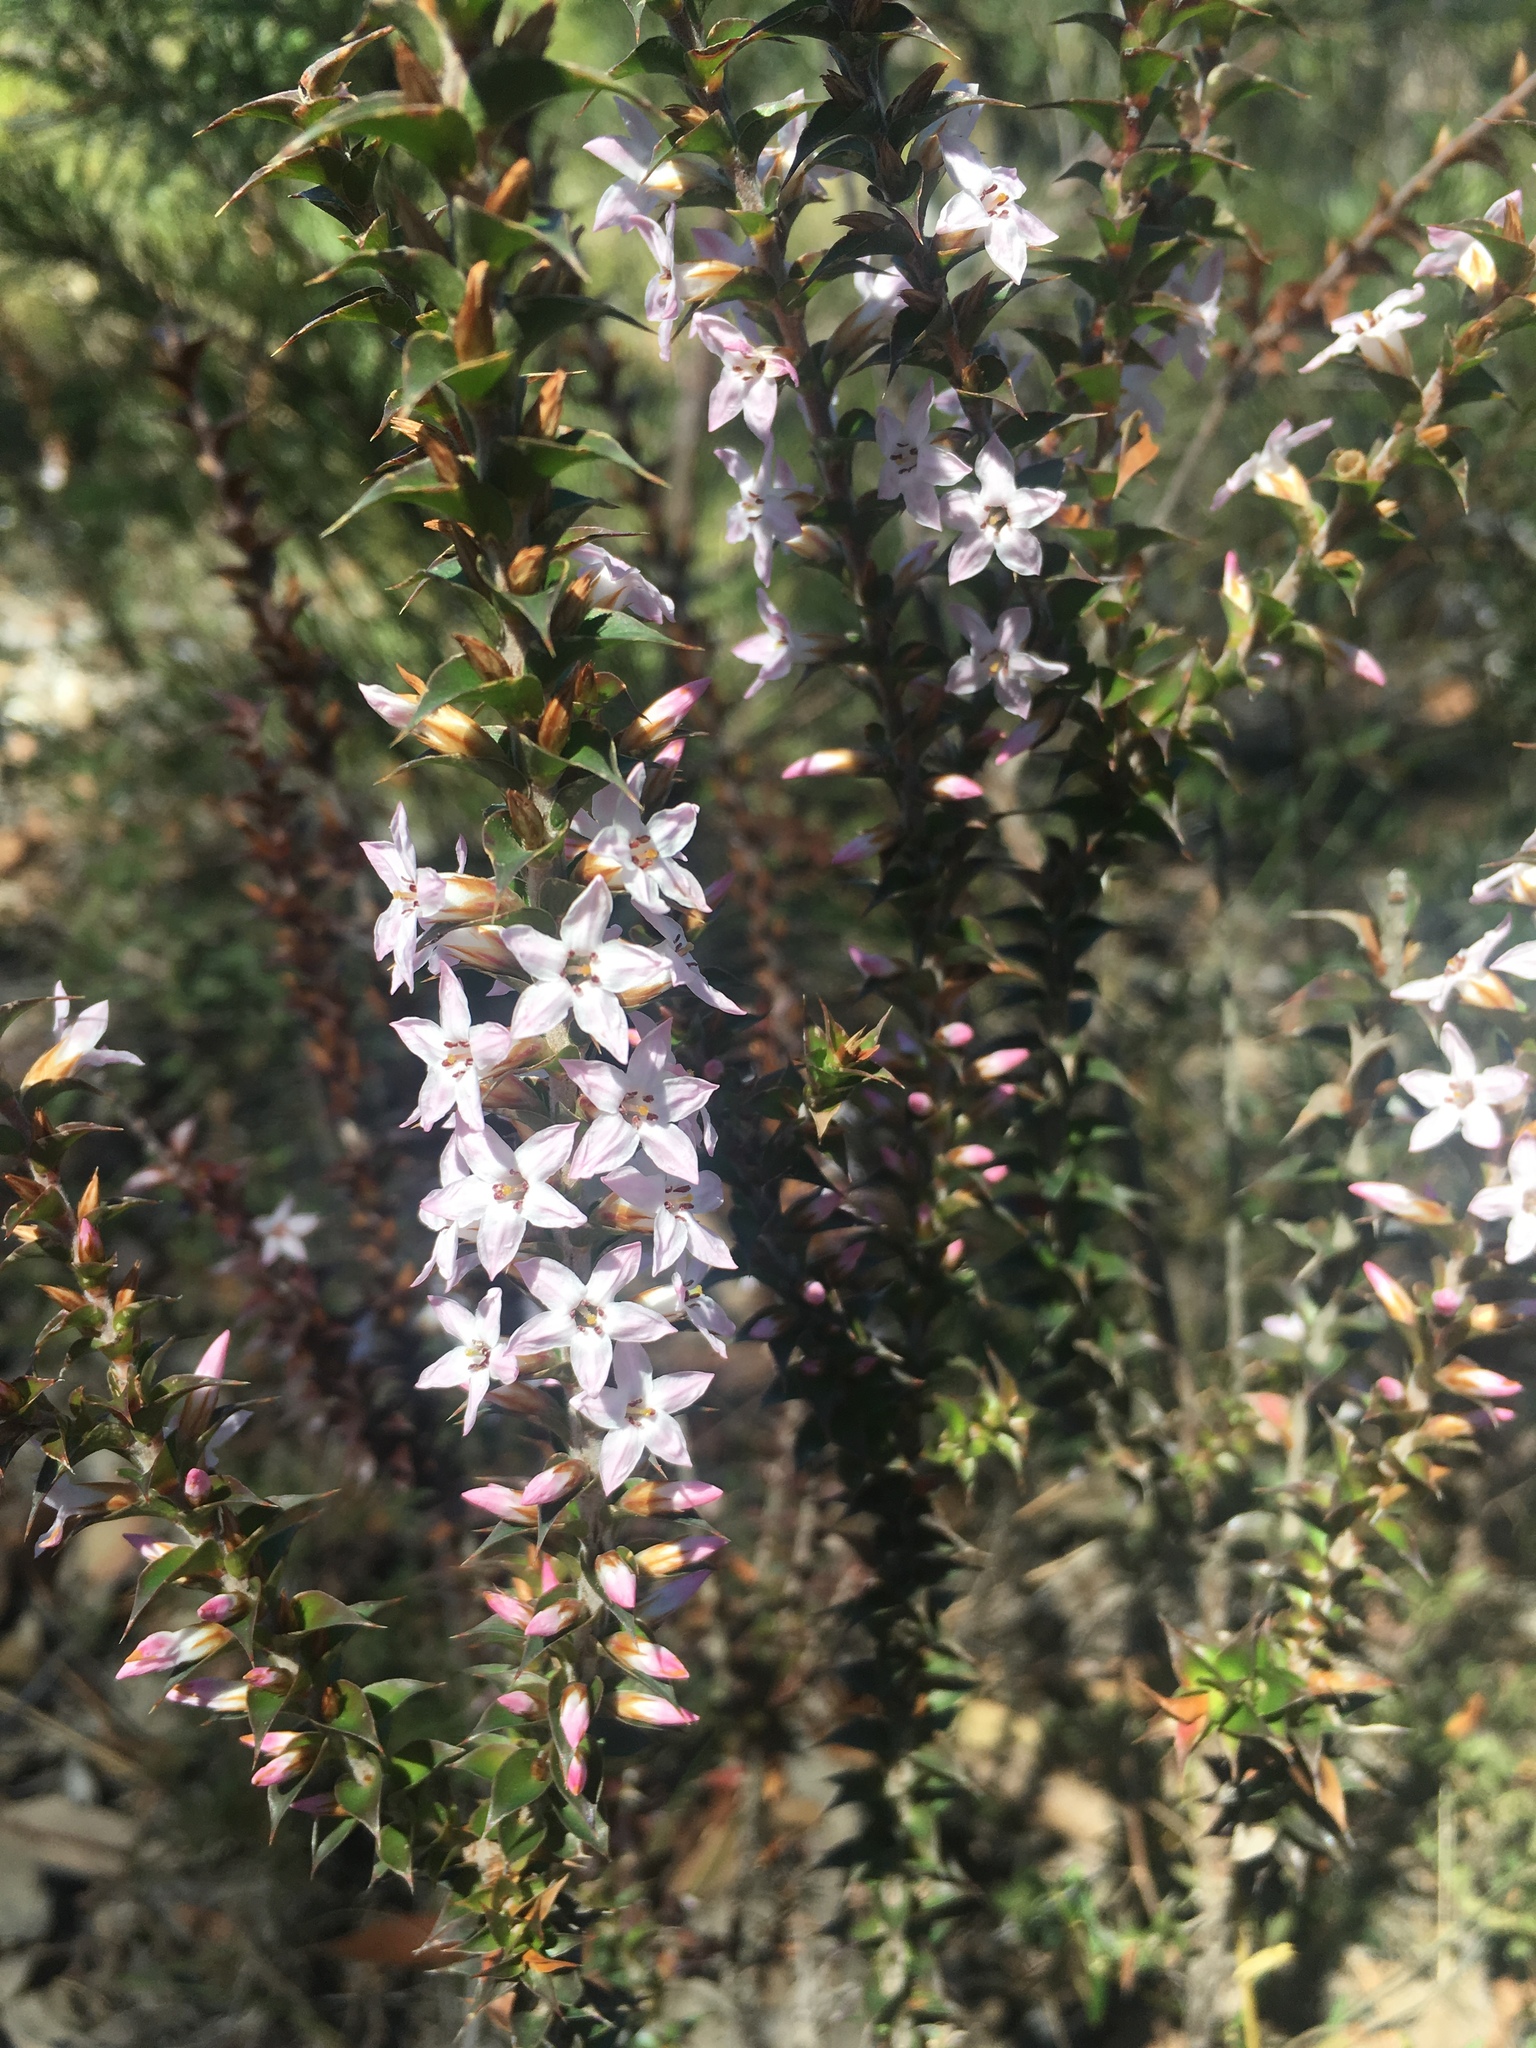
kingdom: Plantae
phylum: Tracheophyta
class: Magnoliopsida
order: Ericales
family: Ericaceae
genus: Epacris
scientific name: Epacris purpurascens
